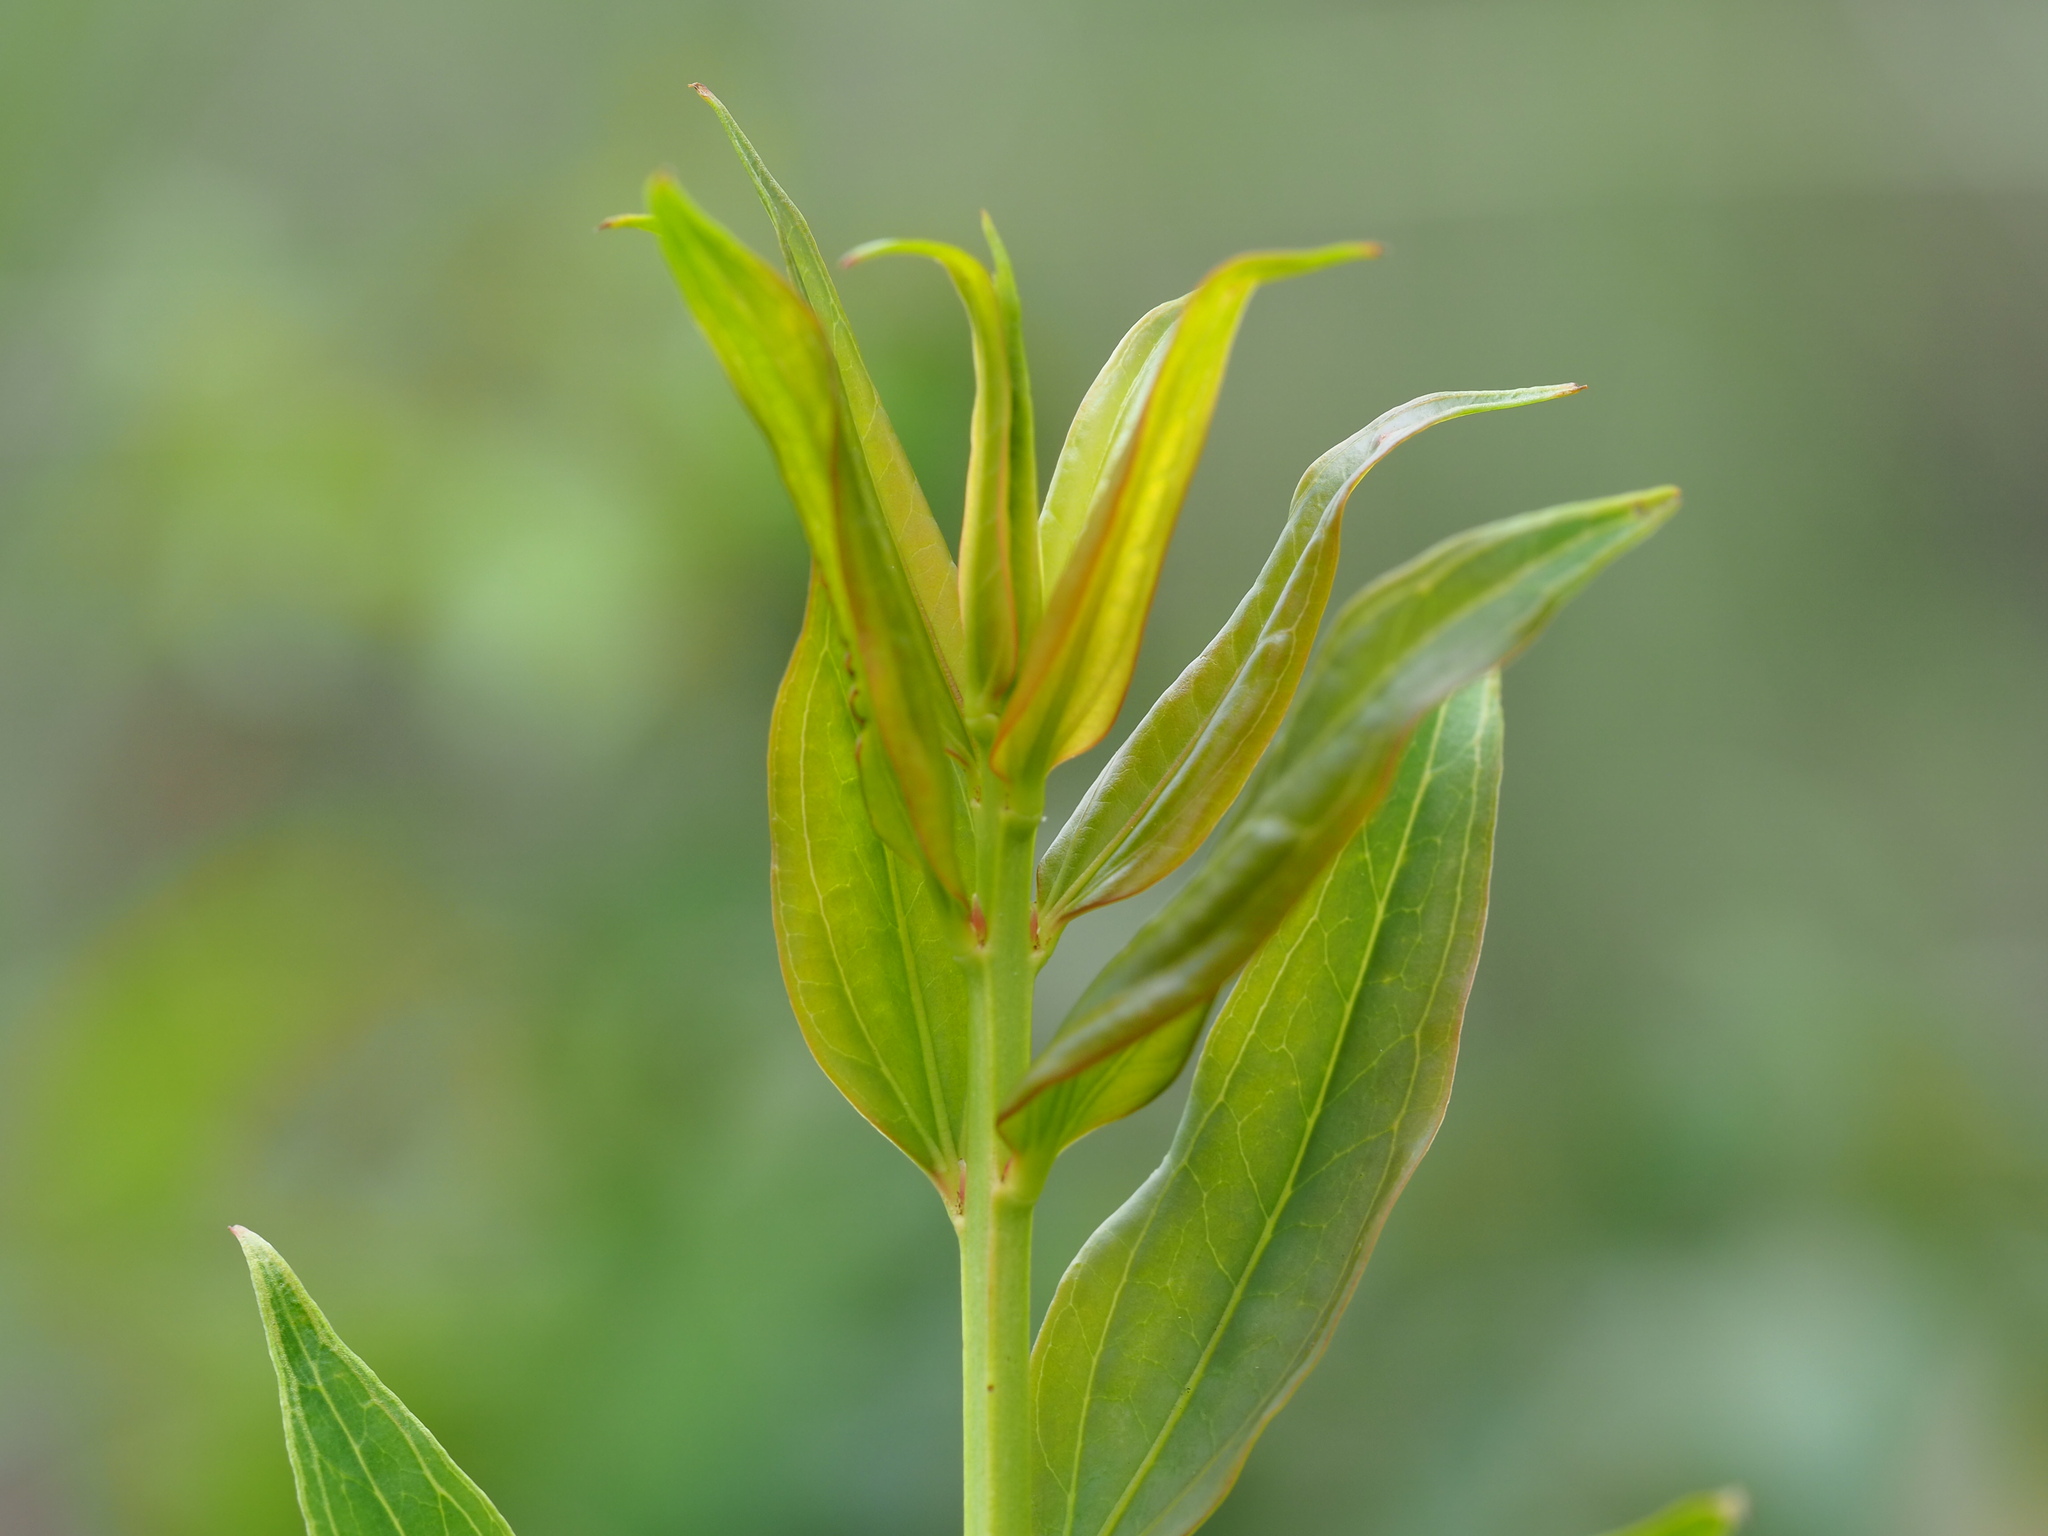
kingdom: Plantae
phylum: Tracheophyta
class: Magnoliopsida
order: Cucurbitales
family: Coriariaceae
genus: Coriaria
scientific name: Coriaria japonica
